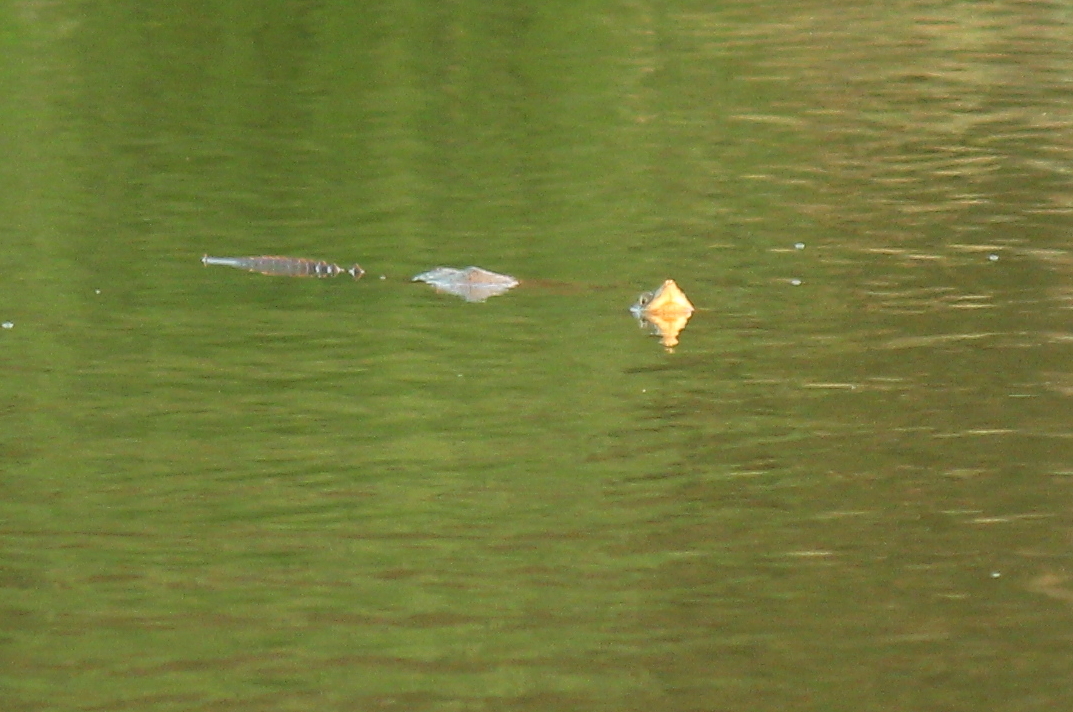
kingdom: Animalia
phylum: Chordata
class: Testudines
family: Chelydridae
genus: Chelydra
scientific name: Chelydra serpentina
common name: Common snapping turtle
